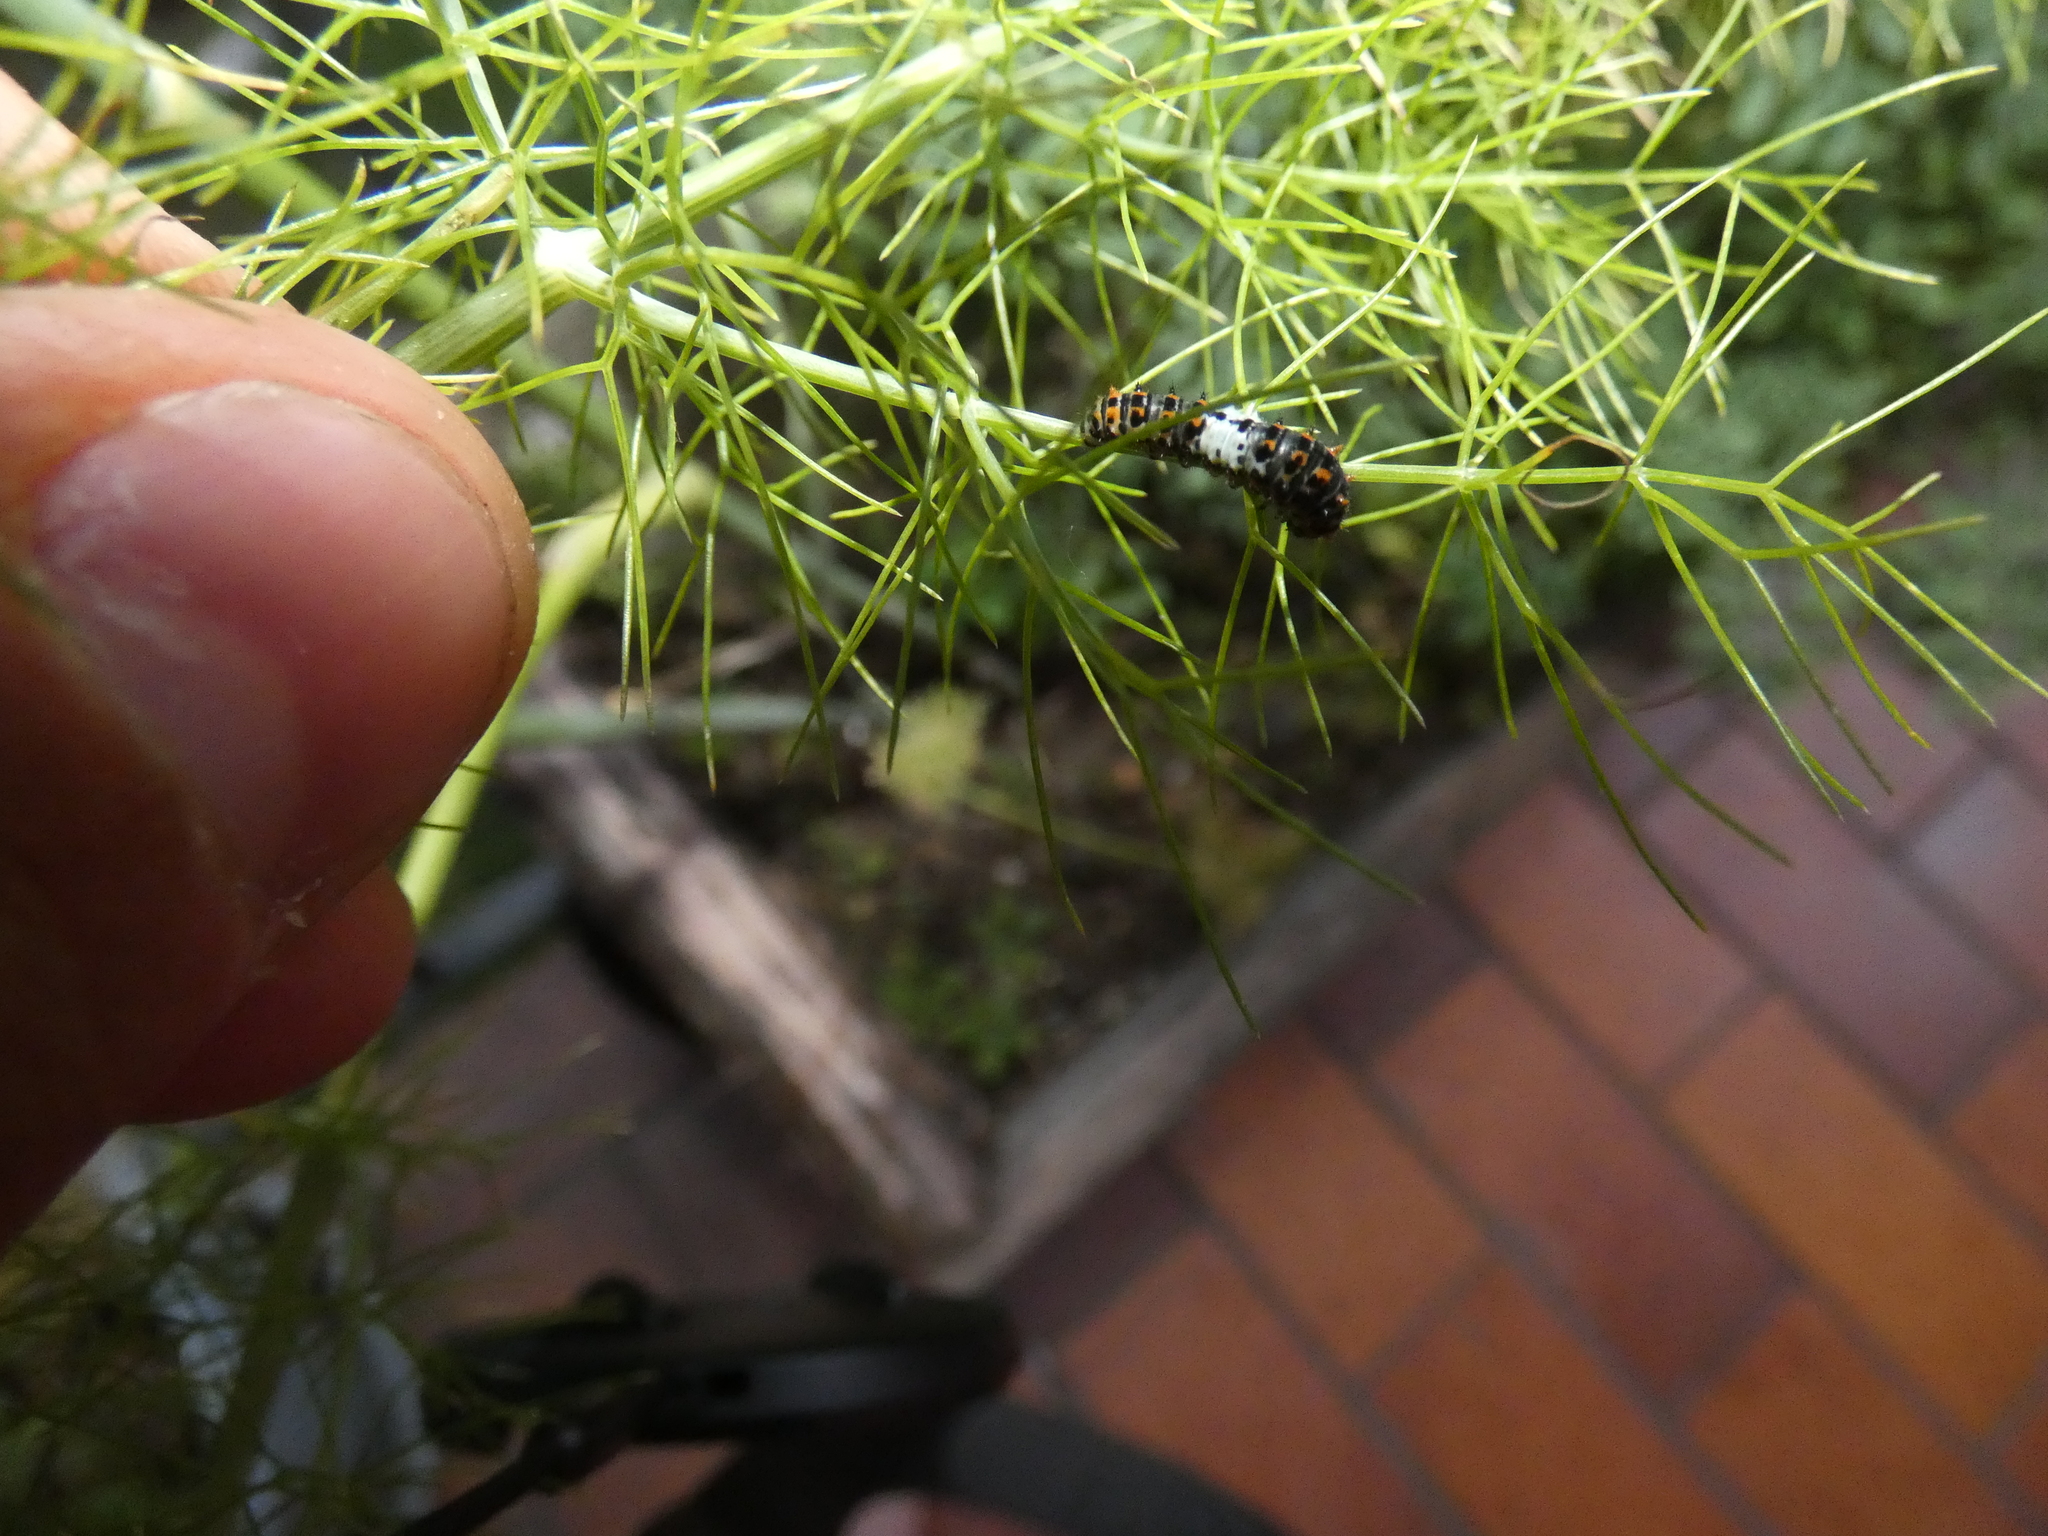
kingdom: Animalia
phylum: Arthropoda
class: Insecta
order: Lepidoptera
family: Papilionidae
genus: Papilio
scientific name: Papilio machaon
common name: Swallowtail
